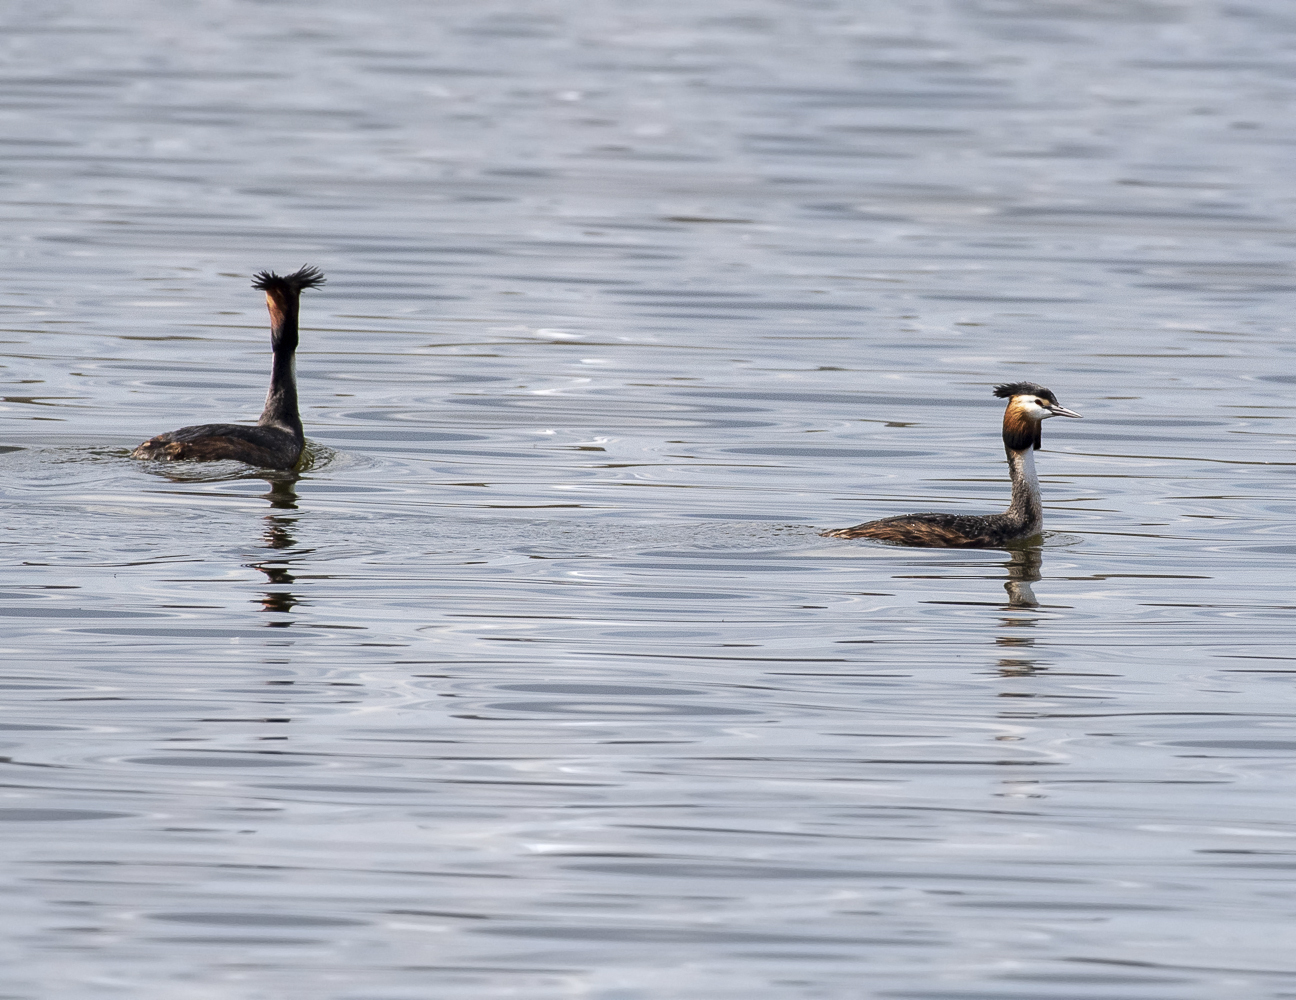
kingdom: Animalia
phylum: Chordata
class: Aves
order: Podicipediformes
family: Podicipedidae
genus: Podiceps
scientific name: Podiceps cristatus
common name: Great crested grebe
